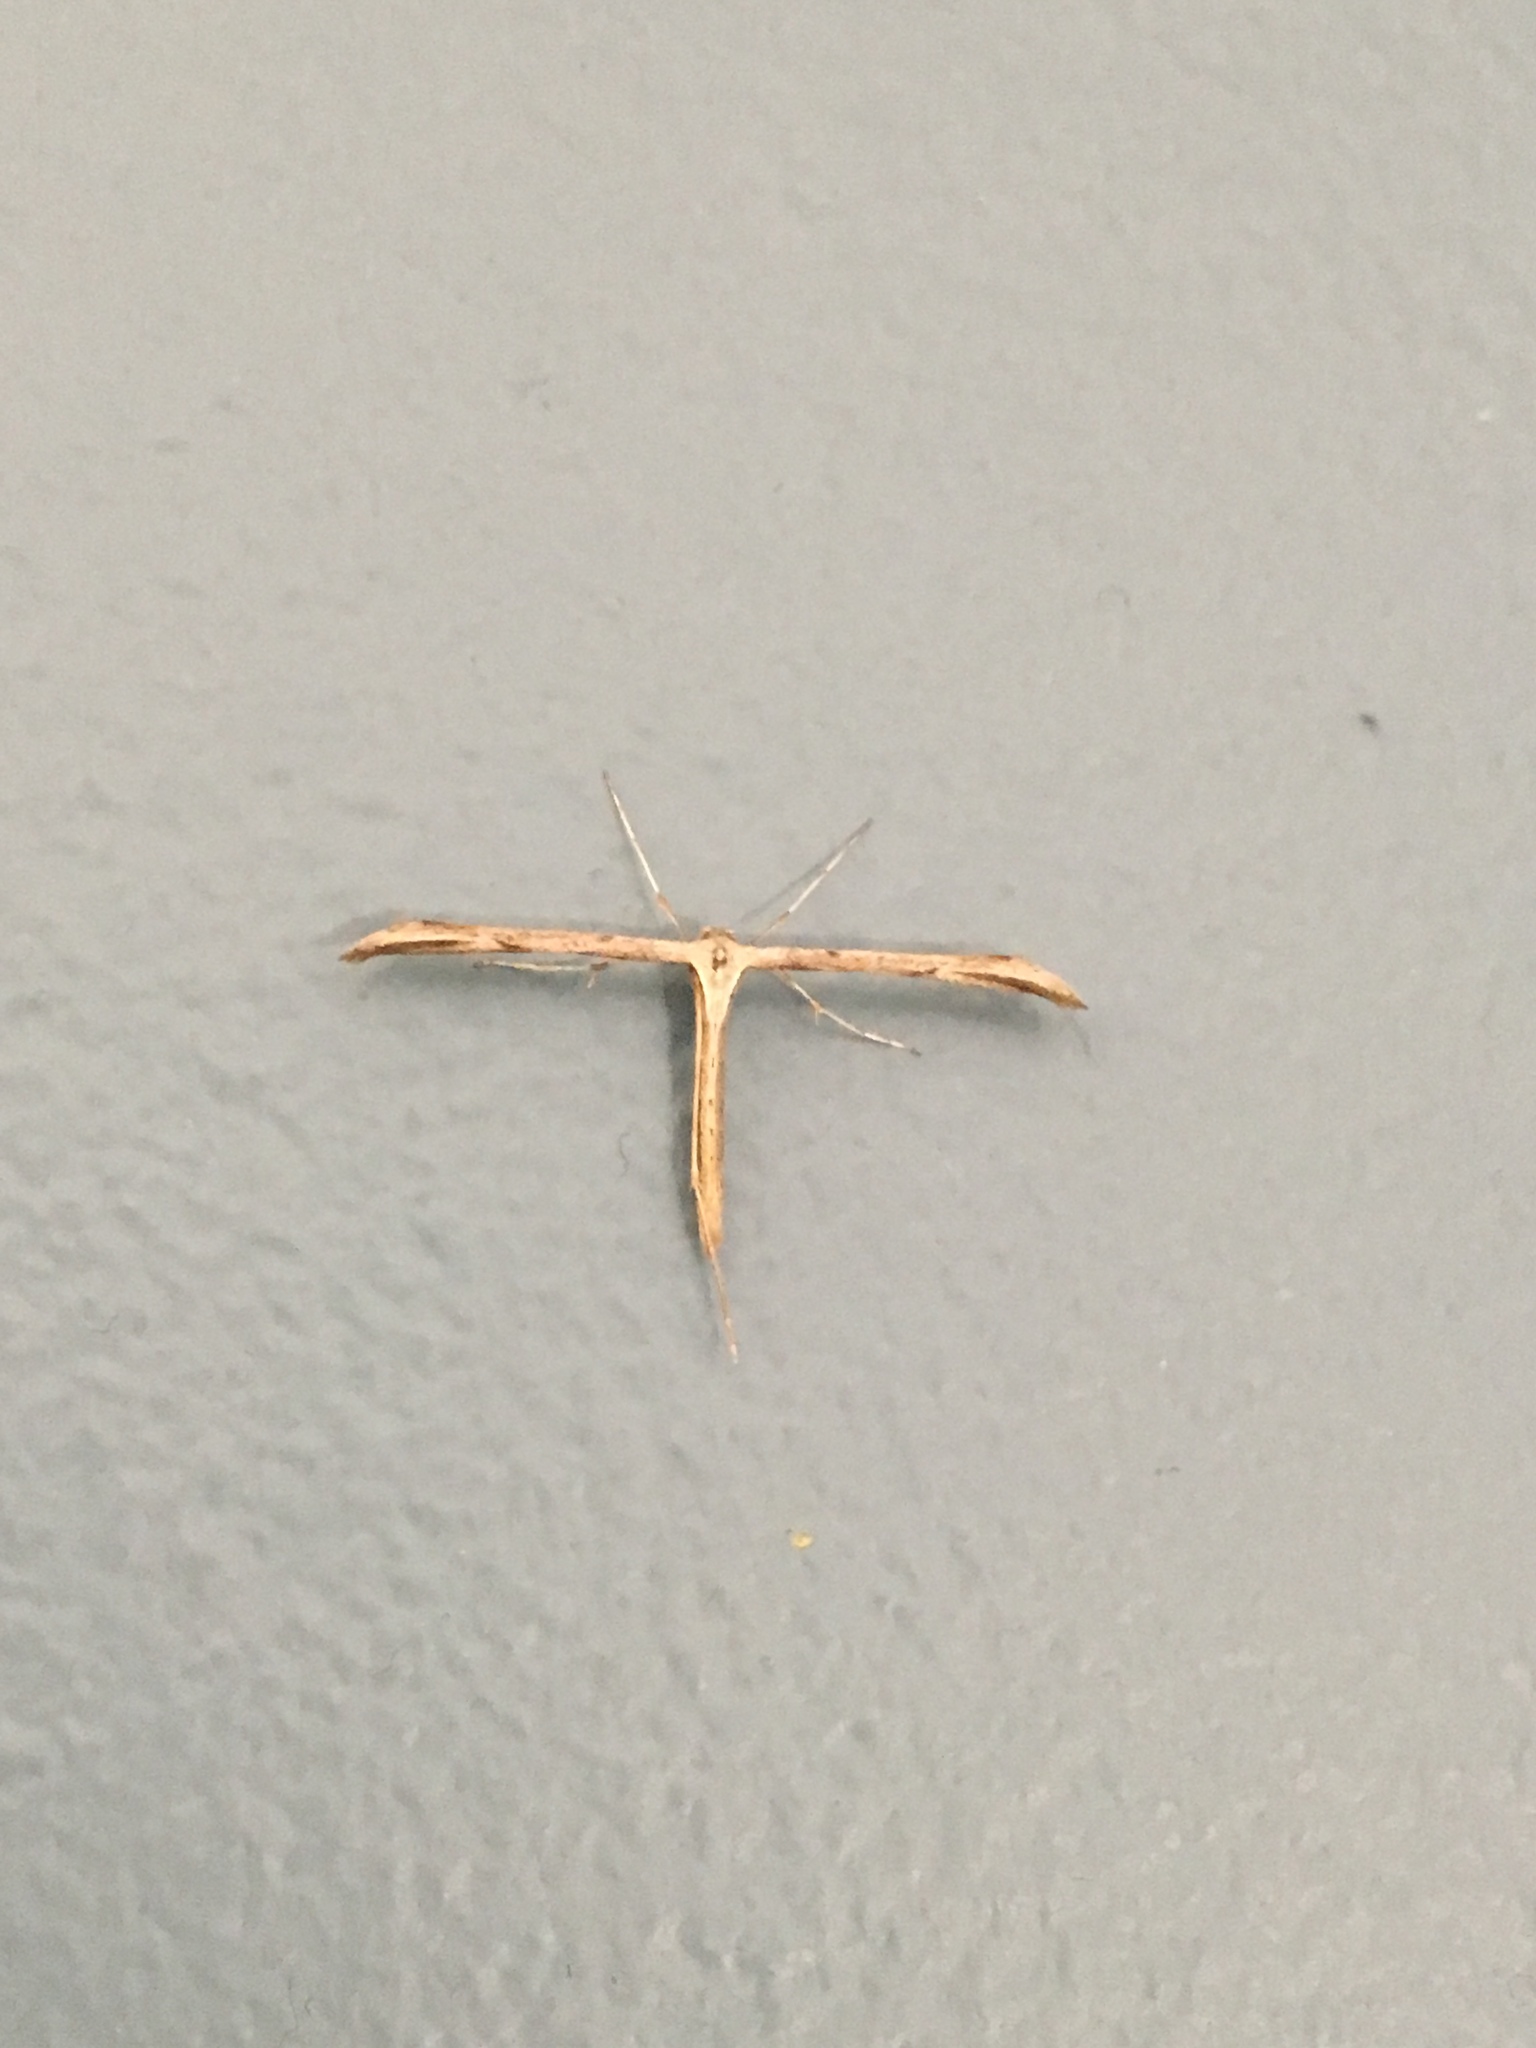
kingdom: Animalia
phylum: Arthropoda
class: Insecta
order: Lepidoptera
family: Pterophoridae
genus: Emmelina
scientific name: Emmelina monodactyla
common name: Common plume
